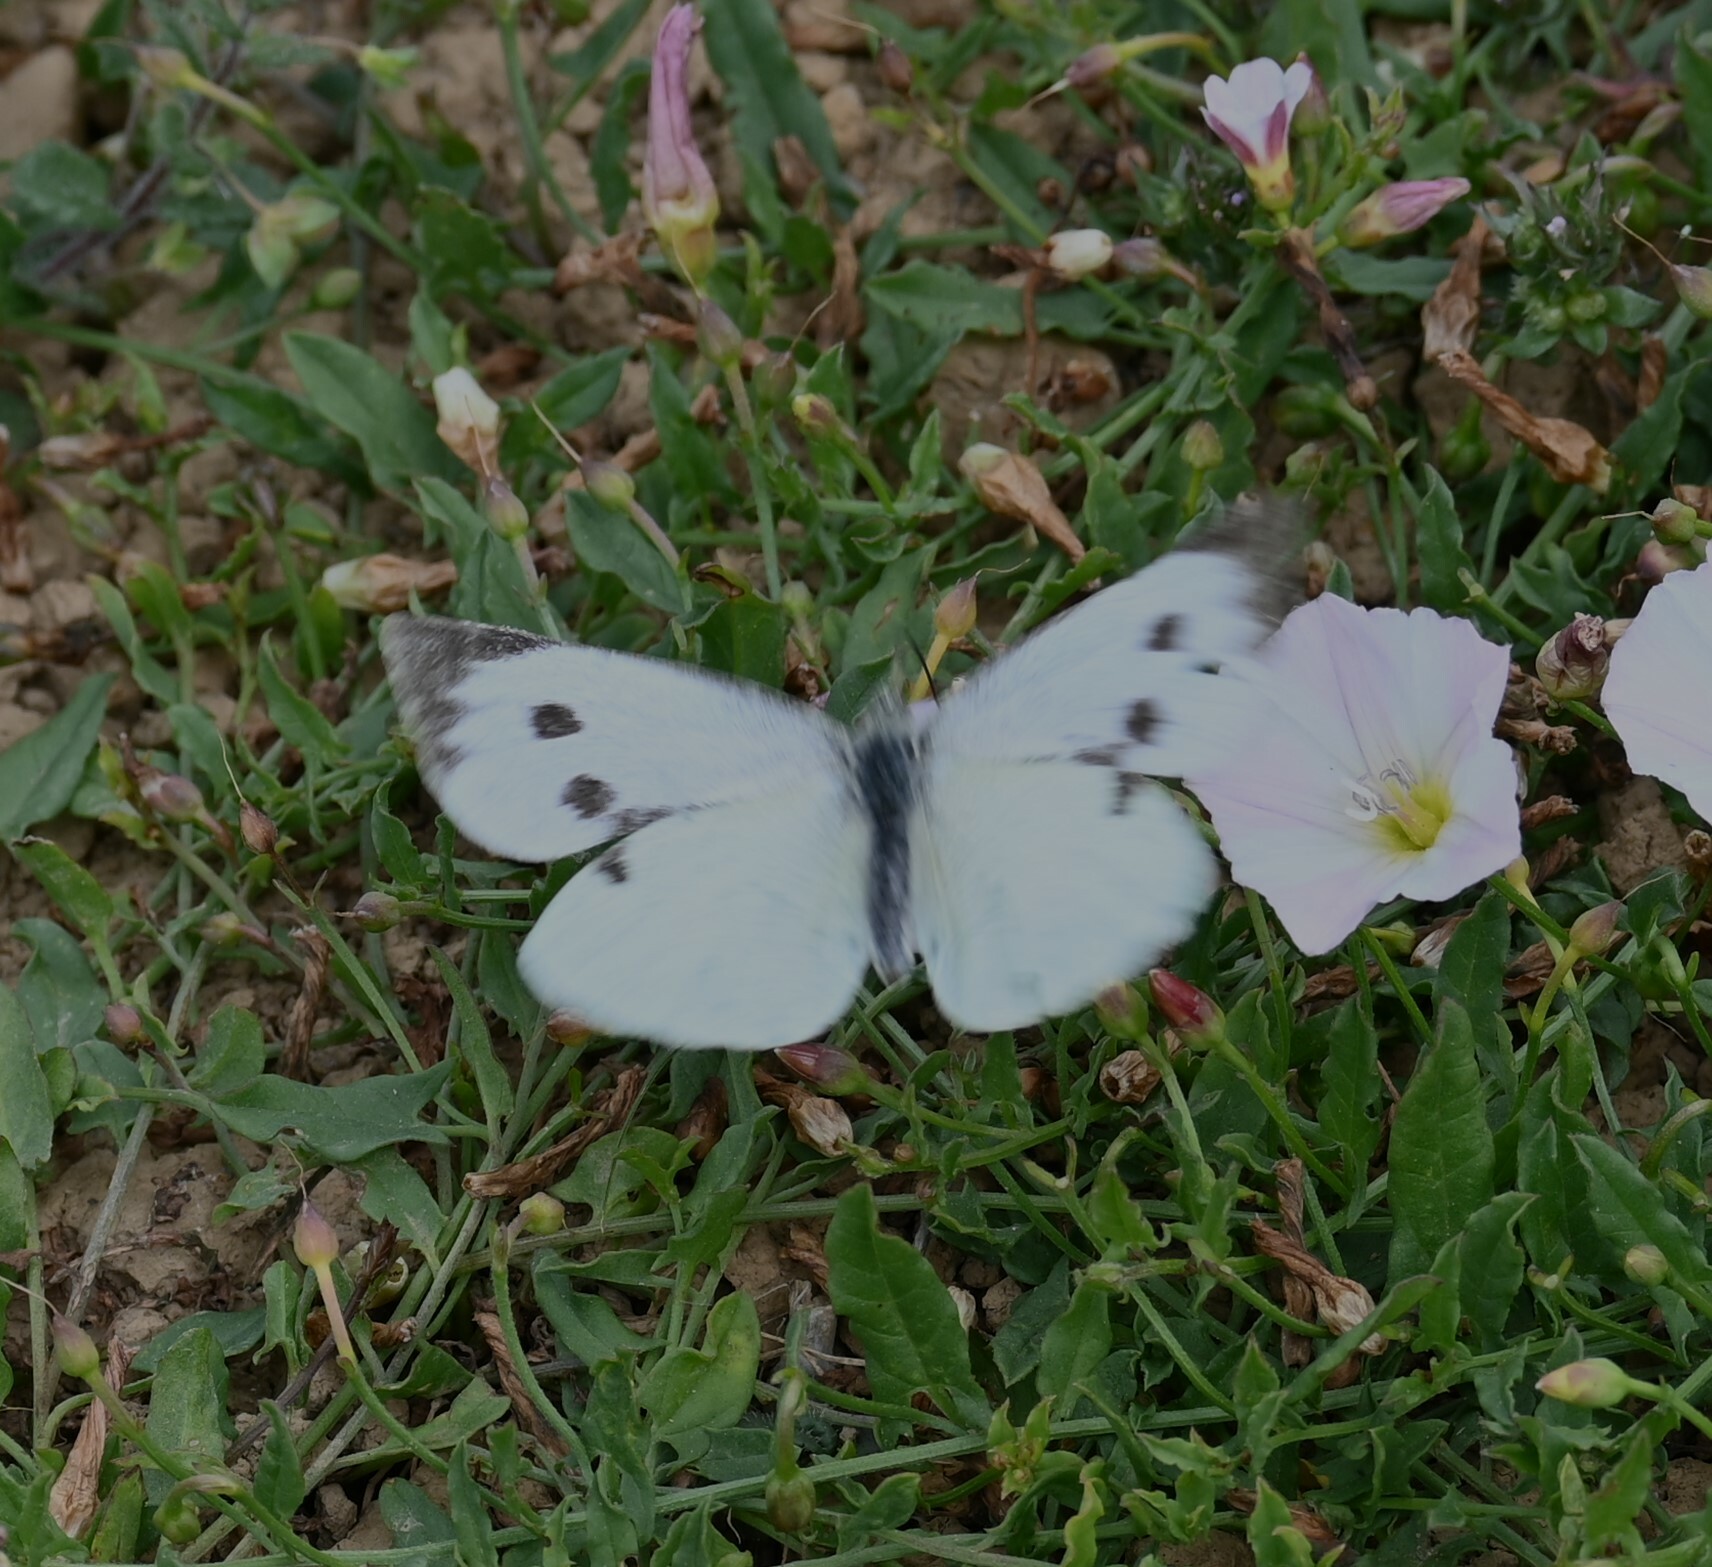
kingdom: Animalia
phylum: Arthropoda
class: Insecta
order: Lepidoptera
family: Pieridae
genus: Pieris
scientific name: Pieris brassicae
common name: Large white
